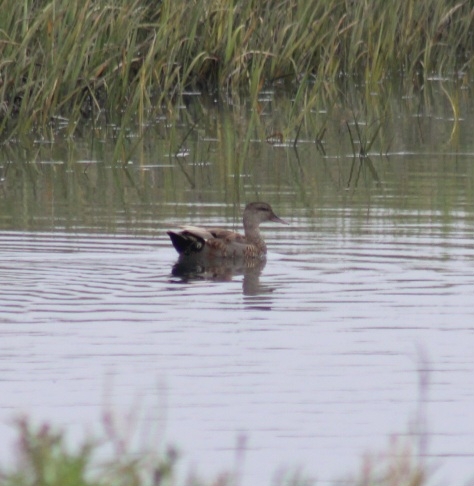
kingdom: Animalia
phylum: Chordata
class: Aves
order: Anseriformes
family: Anatidae
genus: Mareca
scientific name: Mareca strepera
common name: Gadwall
